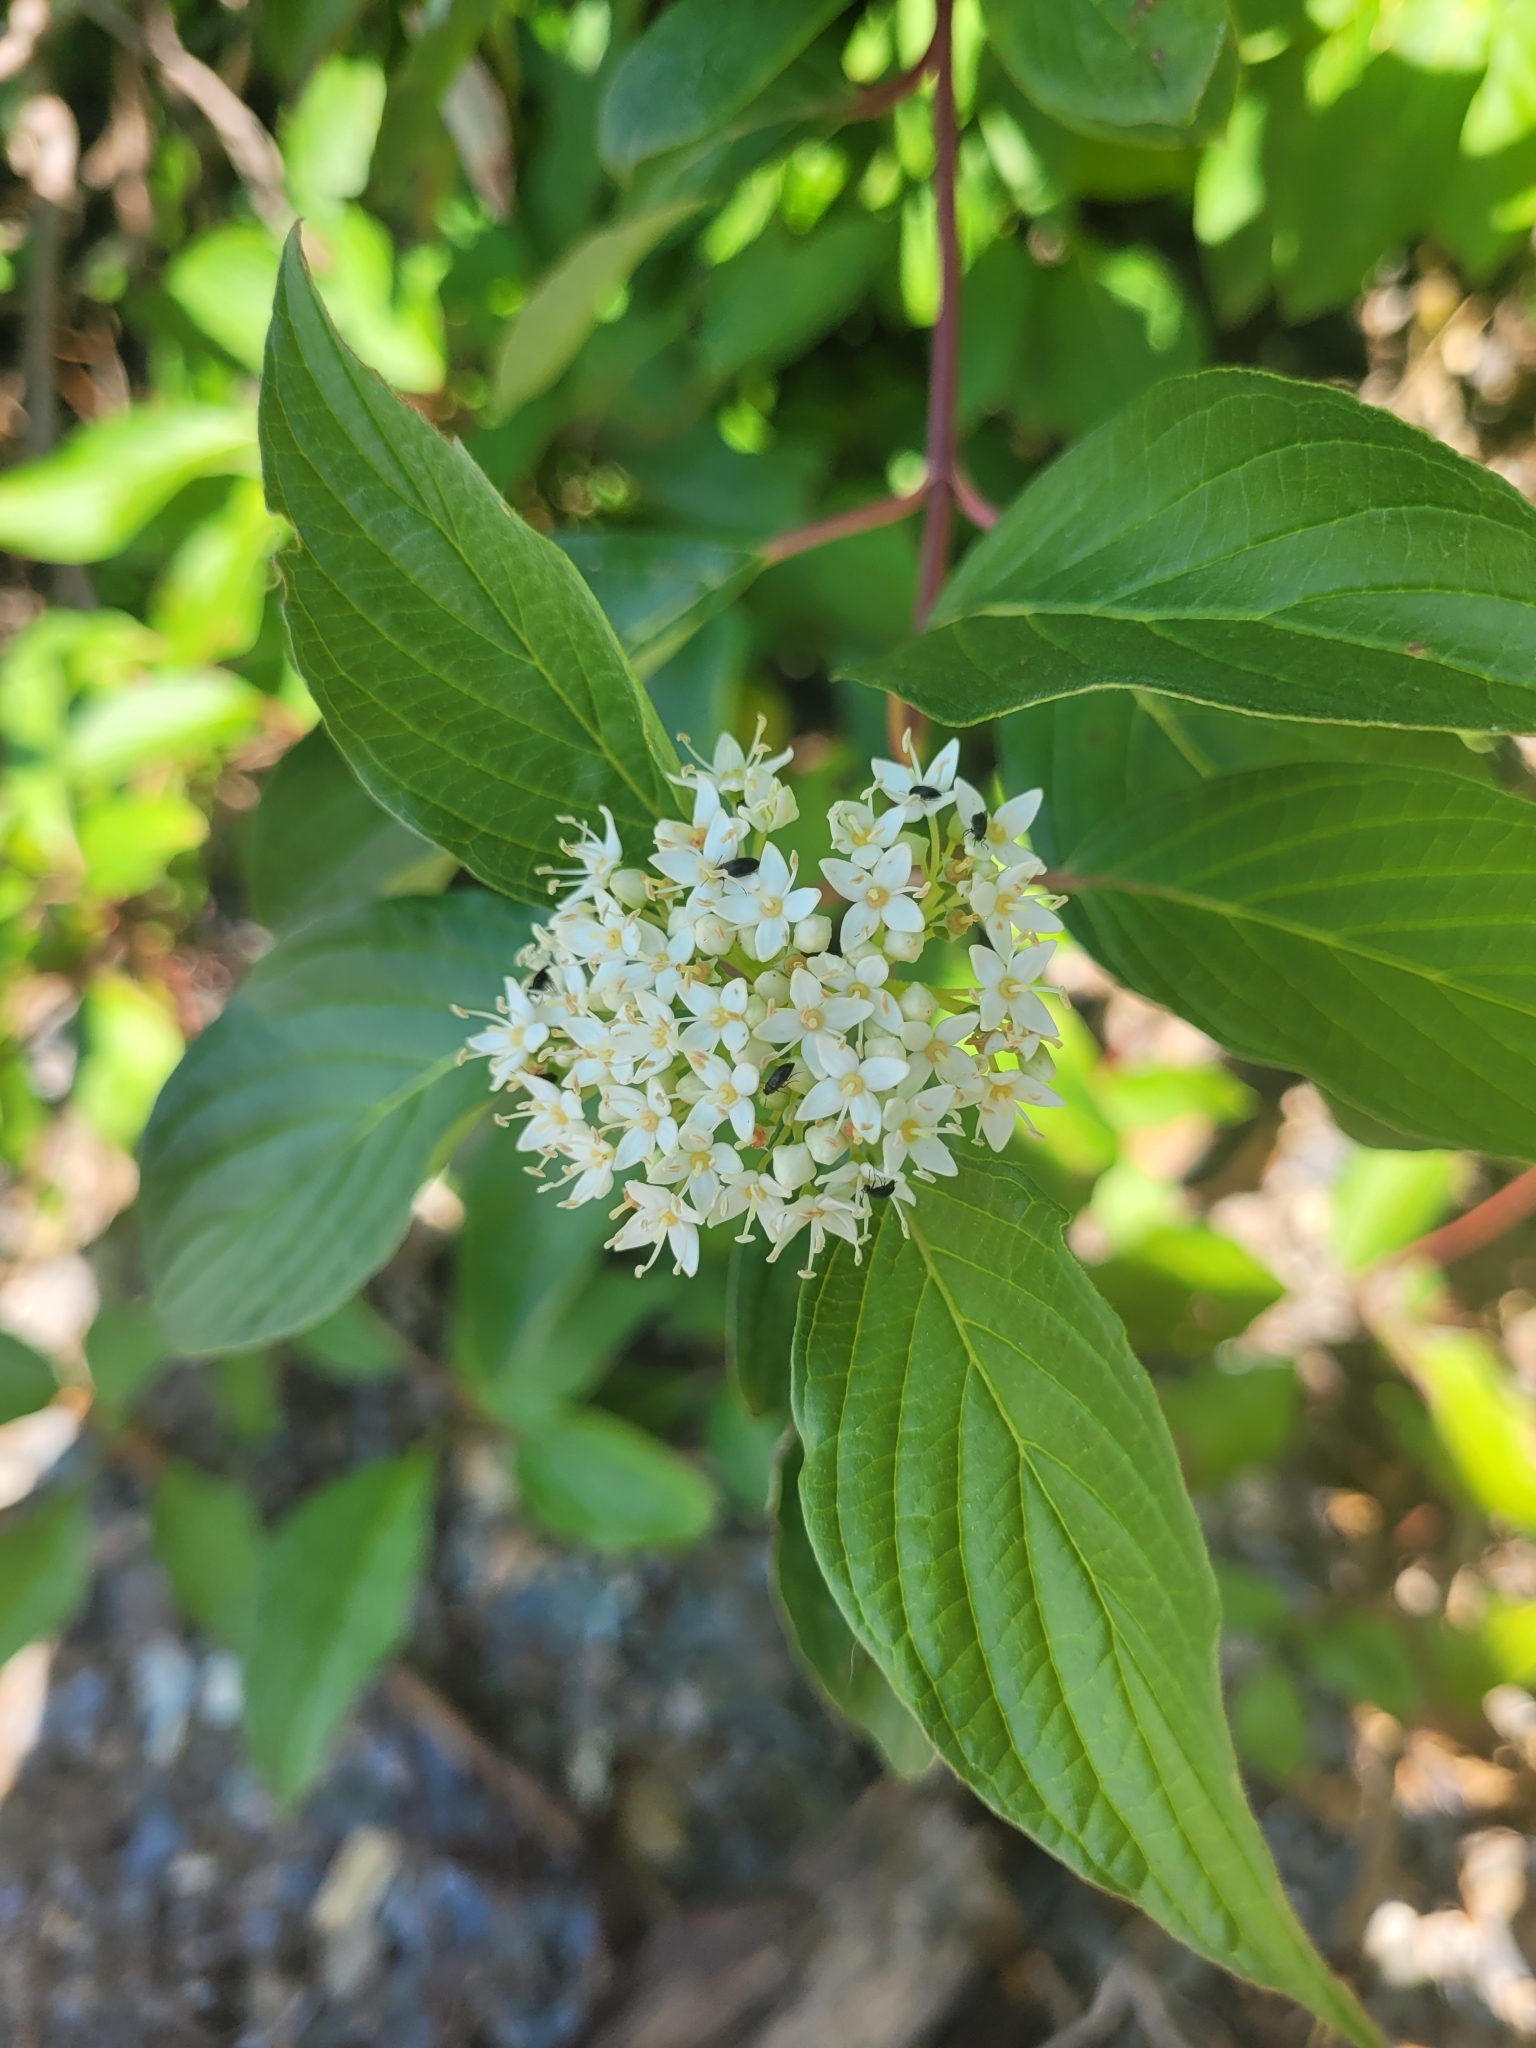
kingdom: Plantae
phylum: Tracheophyta
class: Magnoliopsida
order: Cornales
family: Cornaceae
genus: Cornus
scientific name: Cornus sericea
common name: Red-osier dogwood
